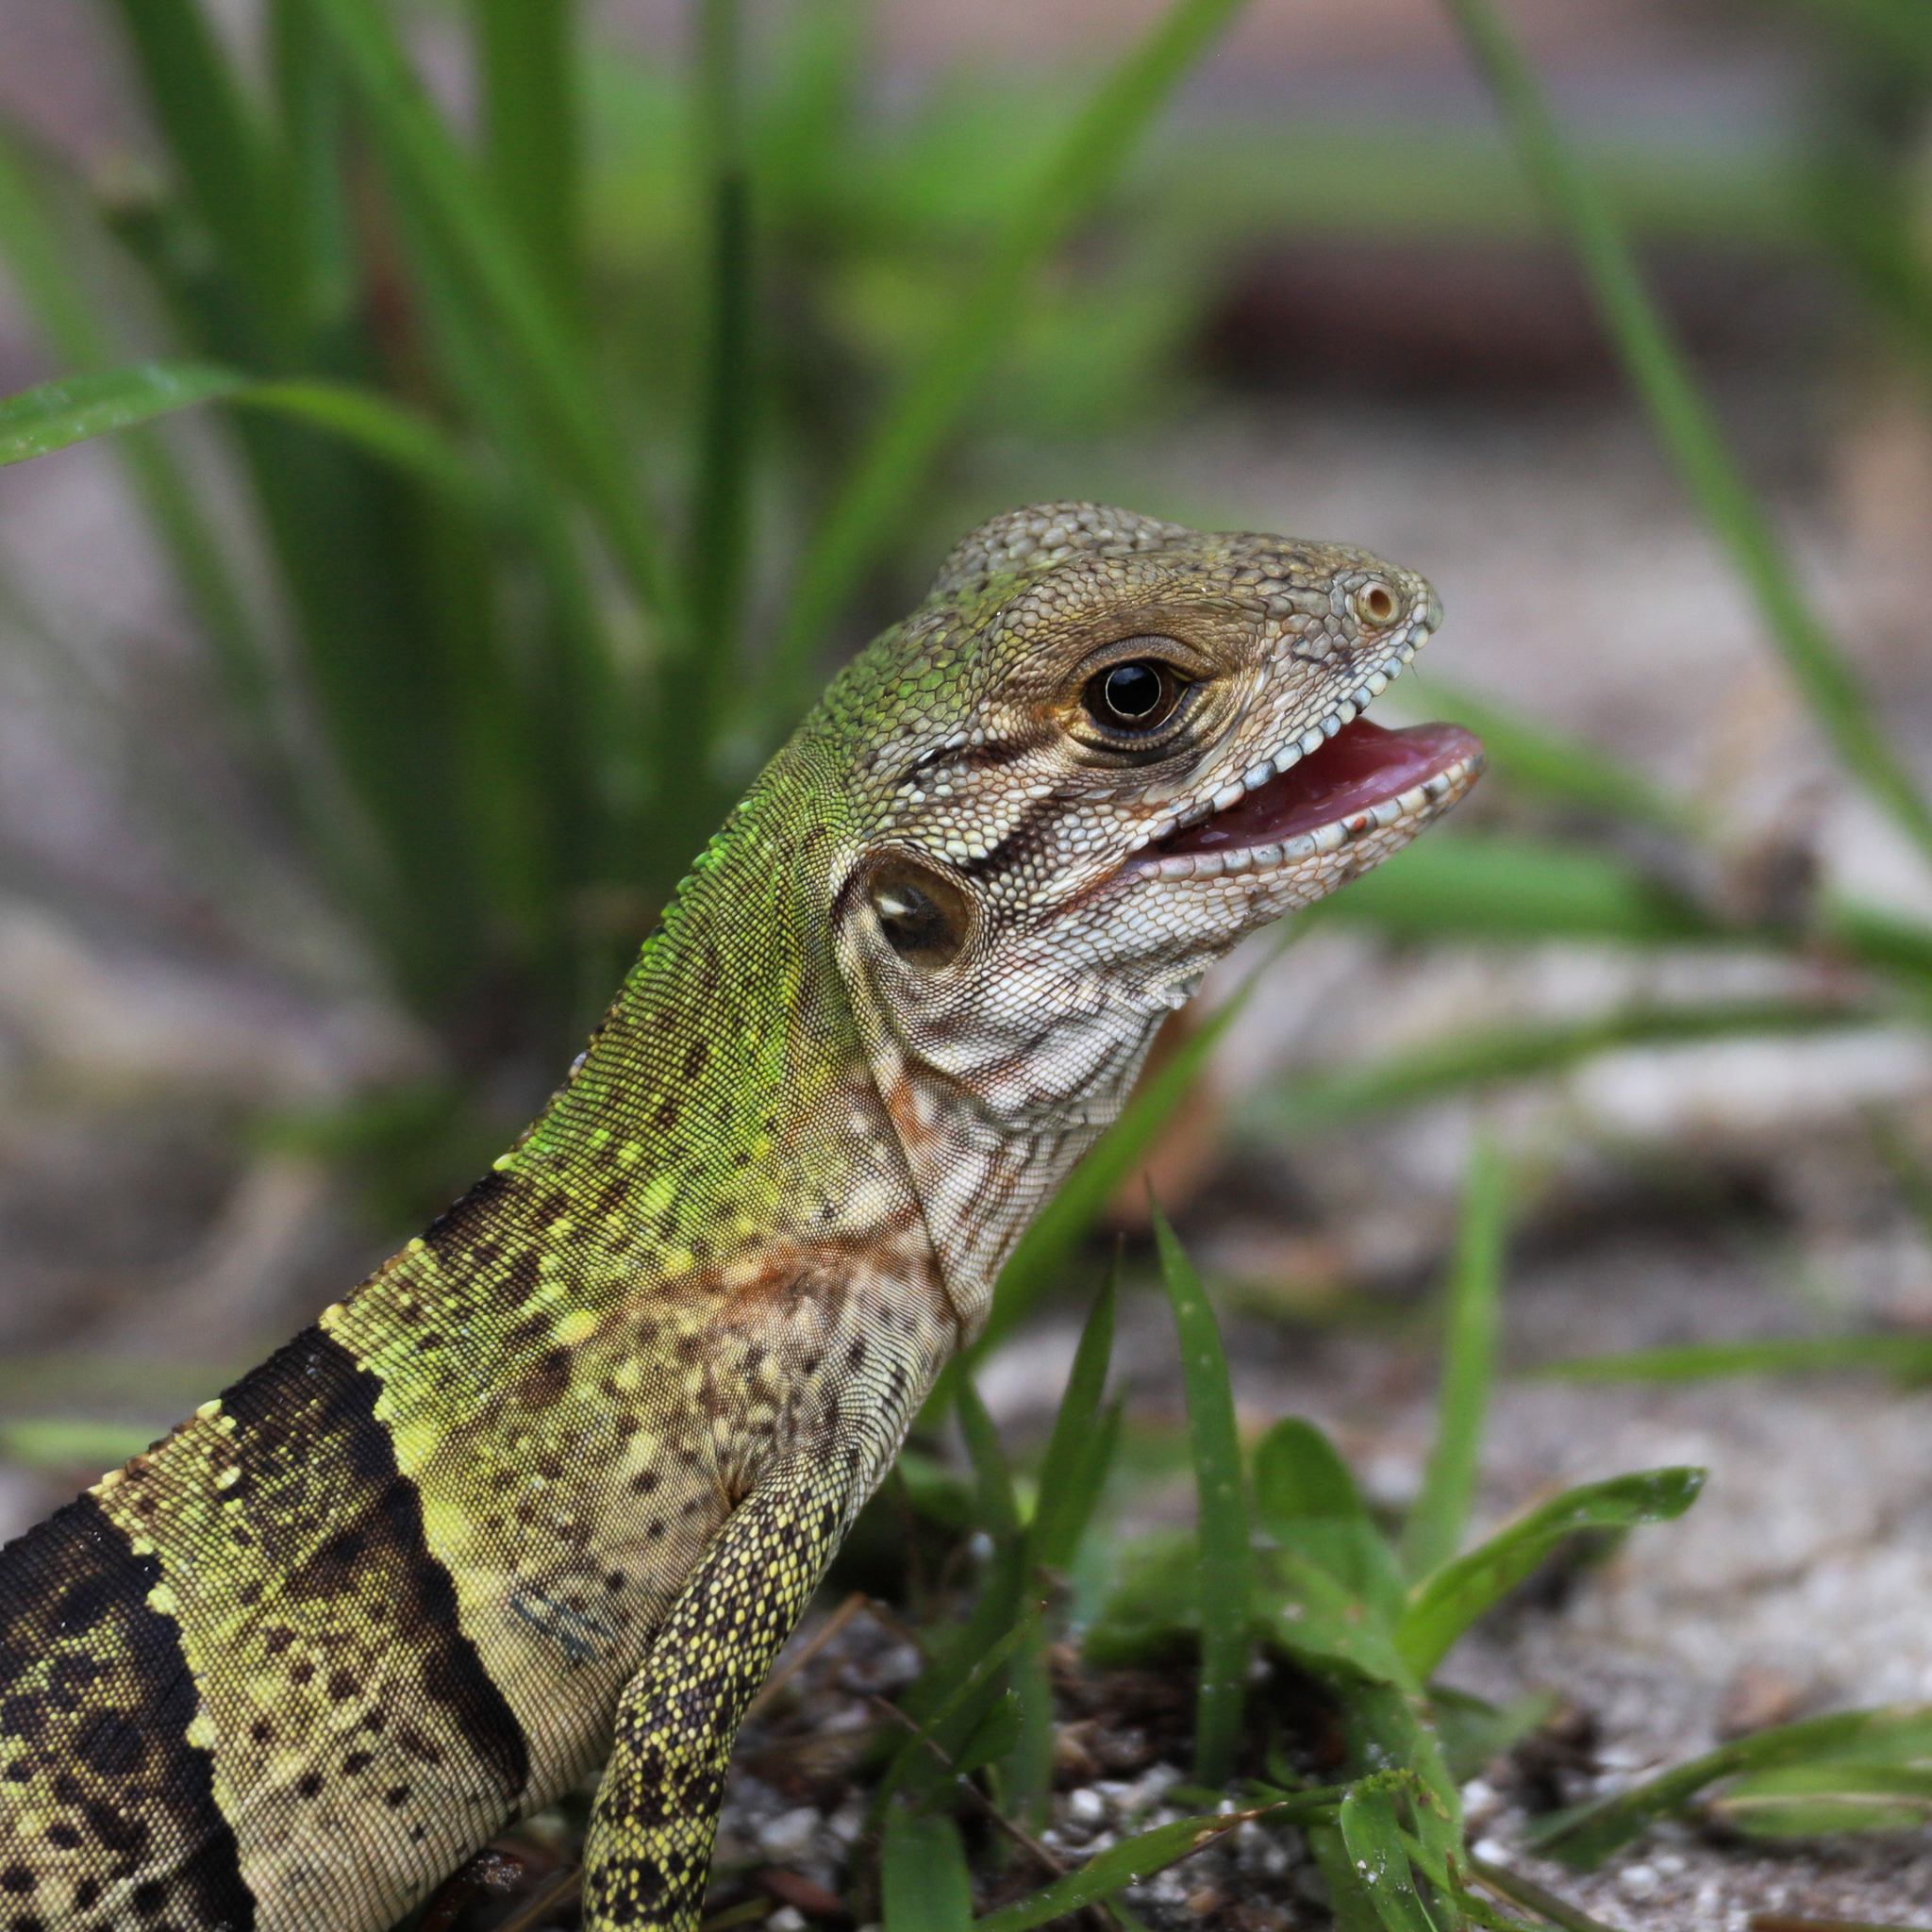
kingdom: Animalia
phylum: Chordata
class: Squamata
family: Iguanidae
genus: Ctenosaura
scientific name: Ctenosaura similis
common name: Black spiny-tailed iguana
